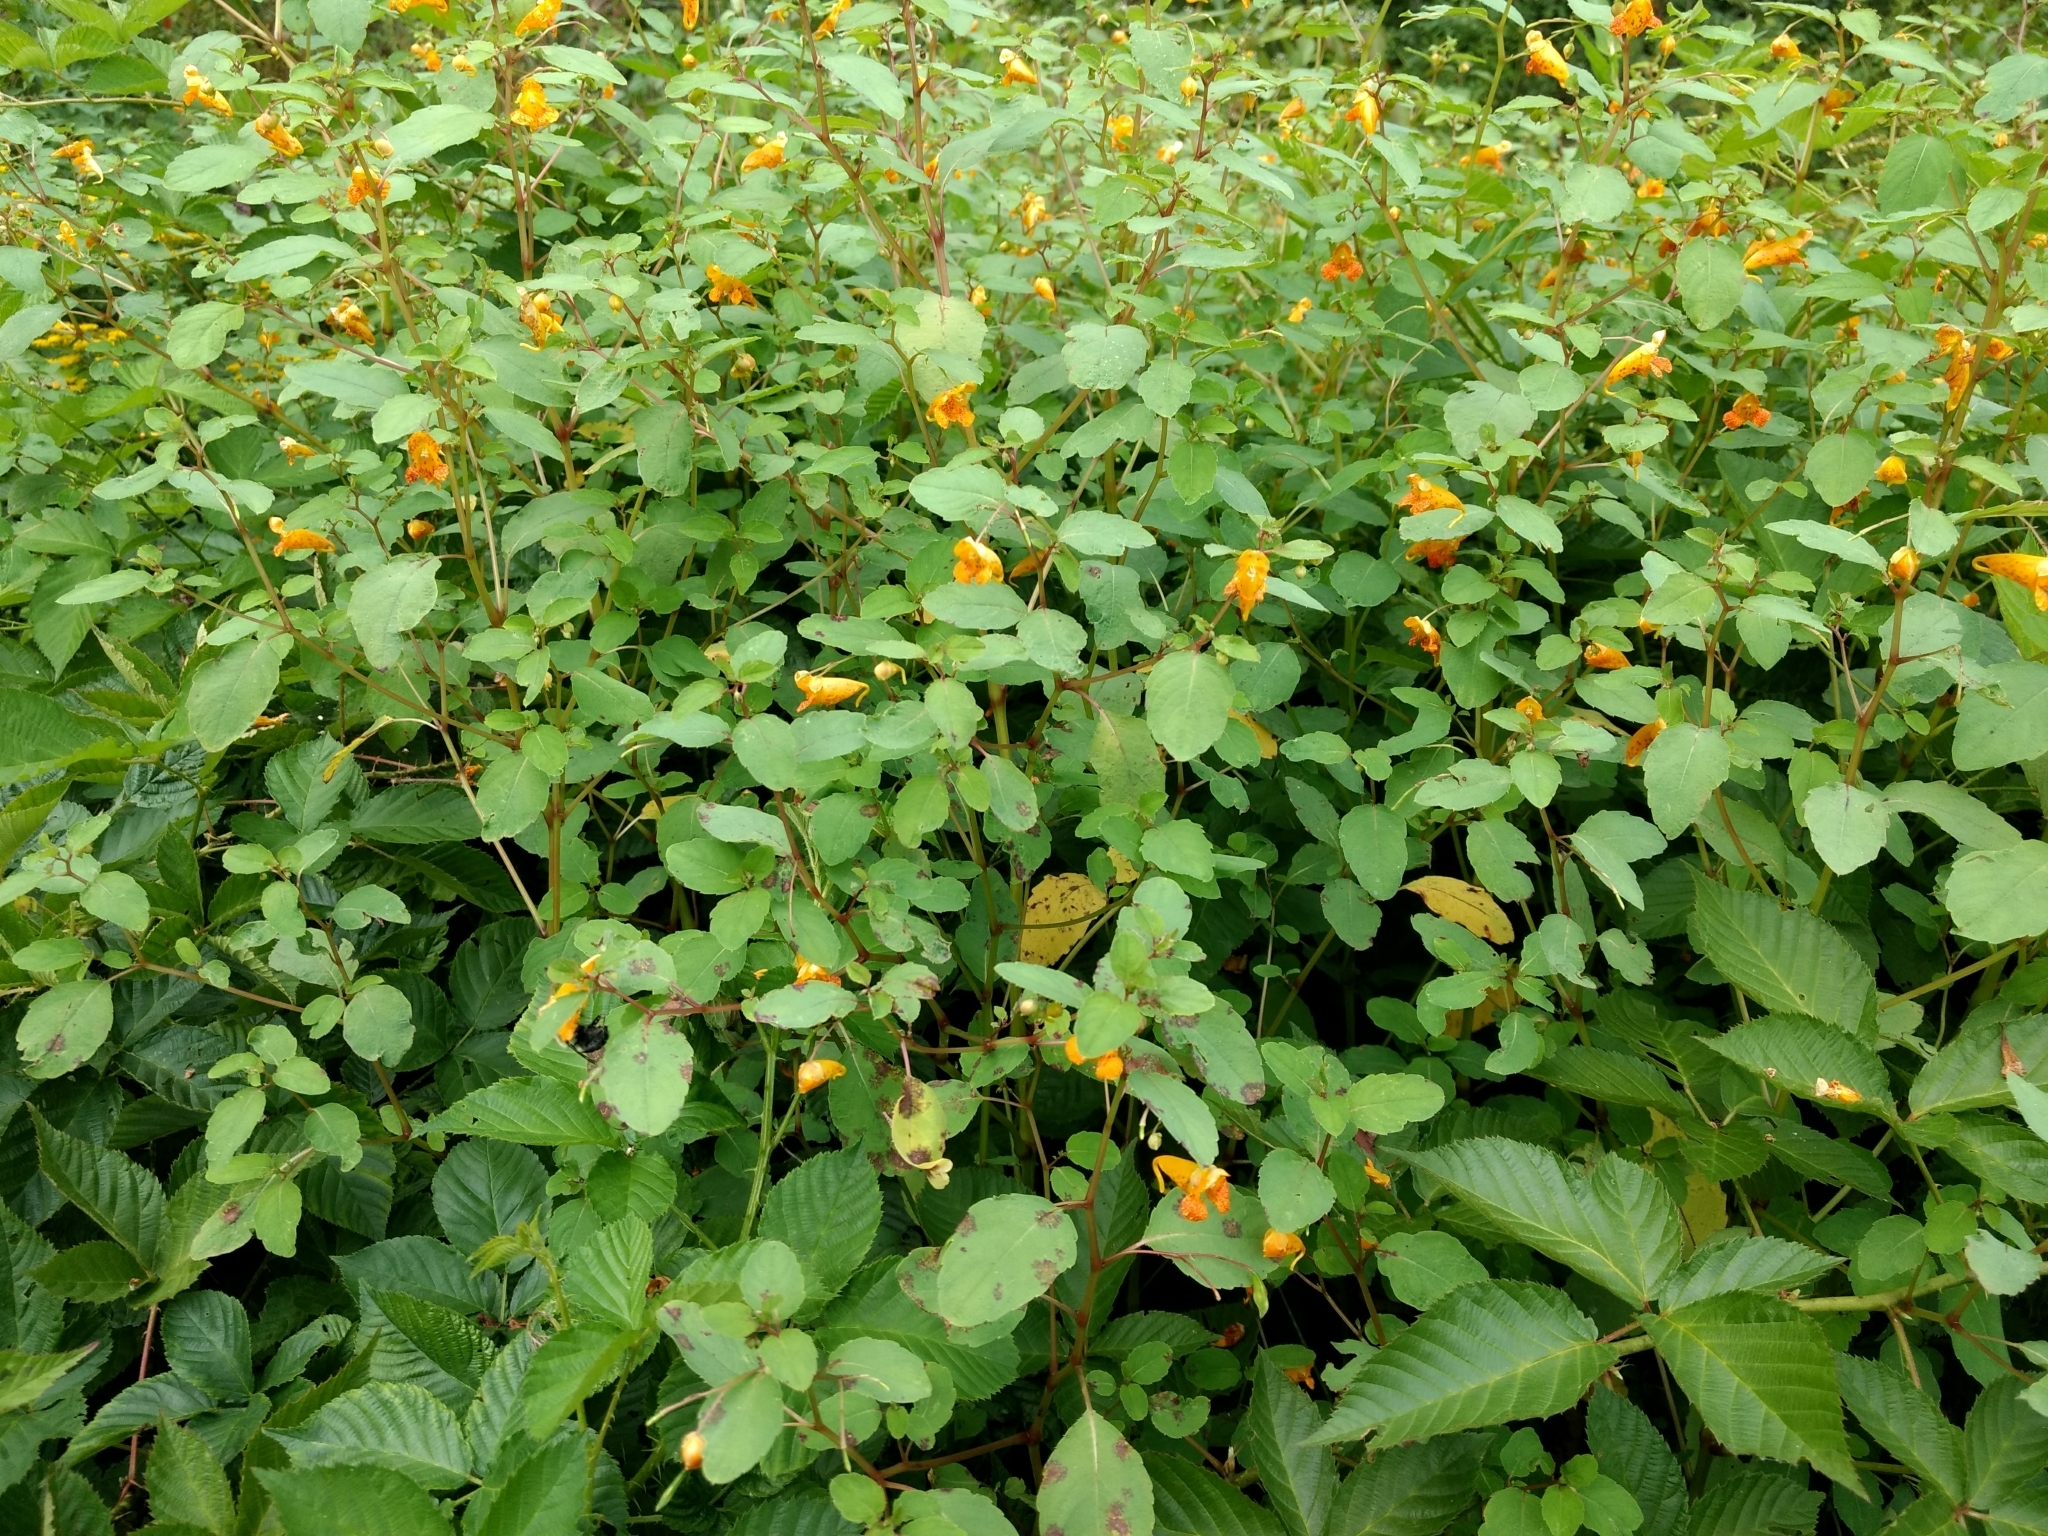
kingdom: Plantae
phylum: Tracheophyta
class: Magnoliopsida
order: Ericales
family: Balsaminaceae
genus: Impatiens
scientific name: Impatiens capensis
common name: Orange balsam
